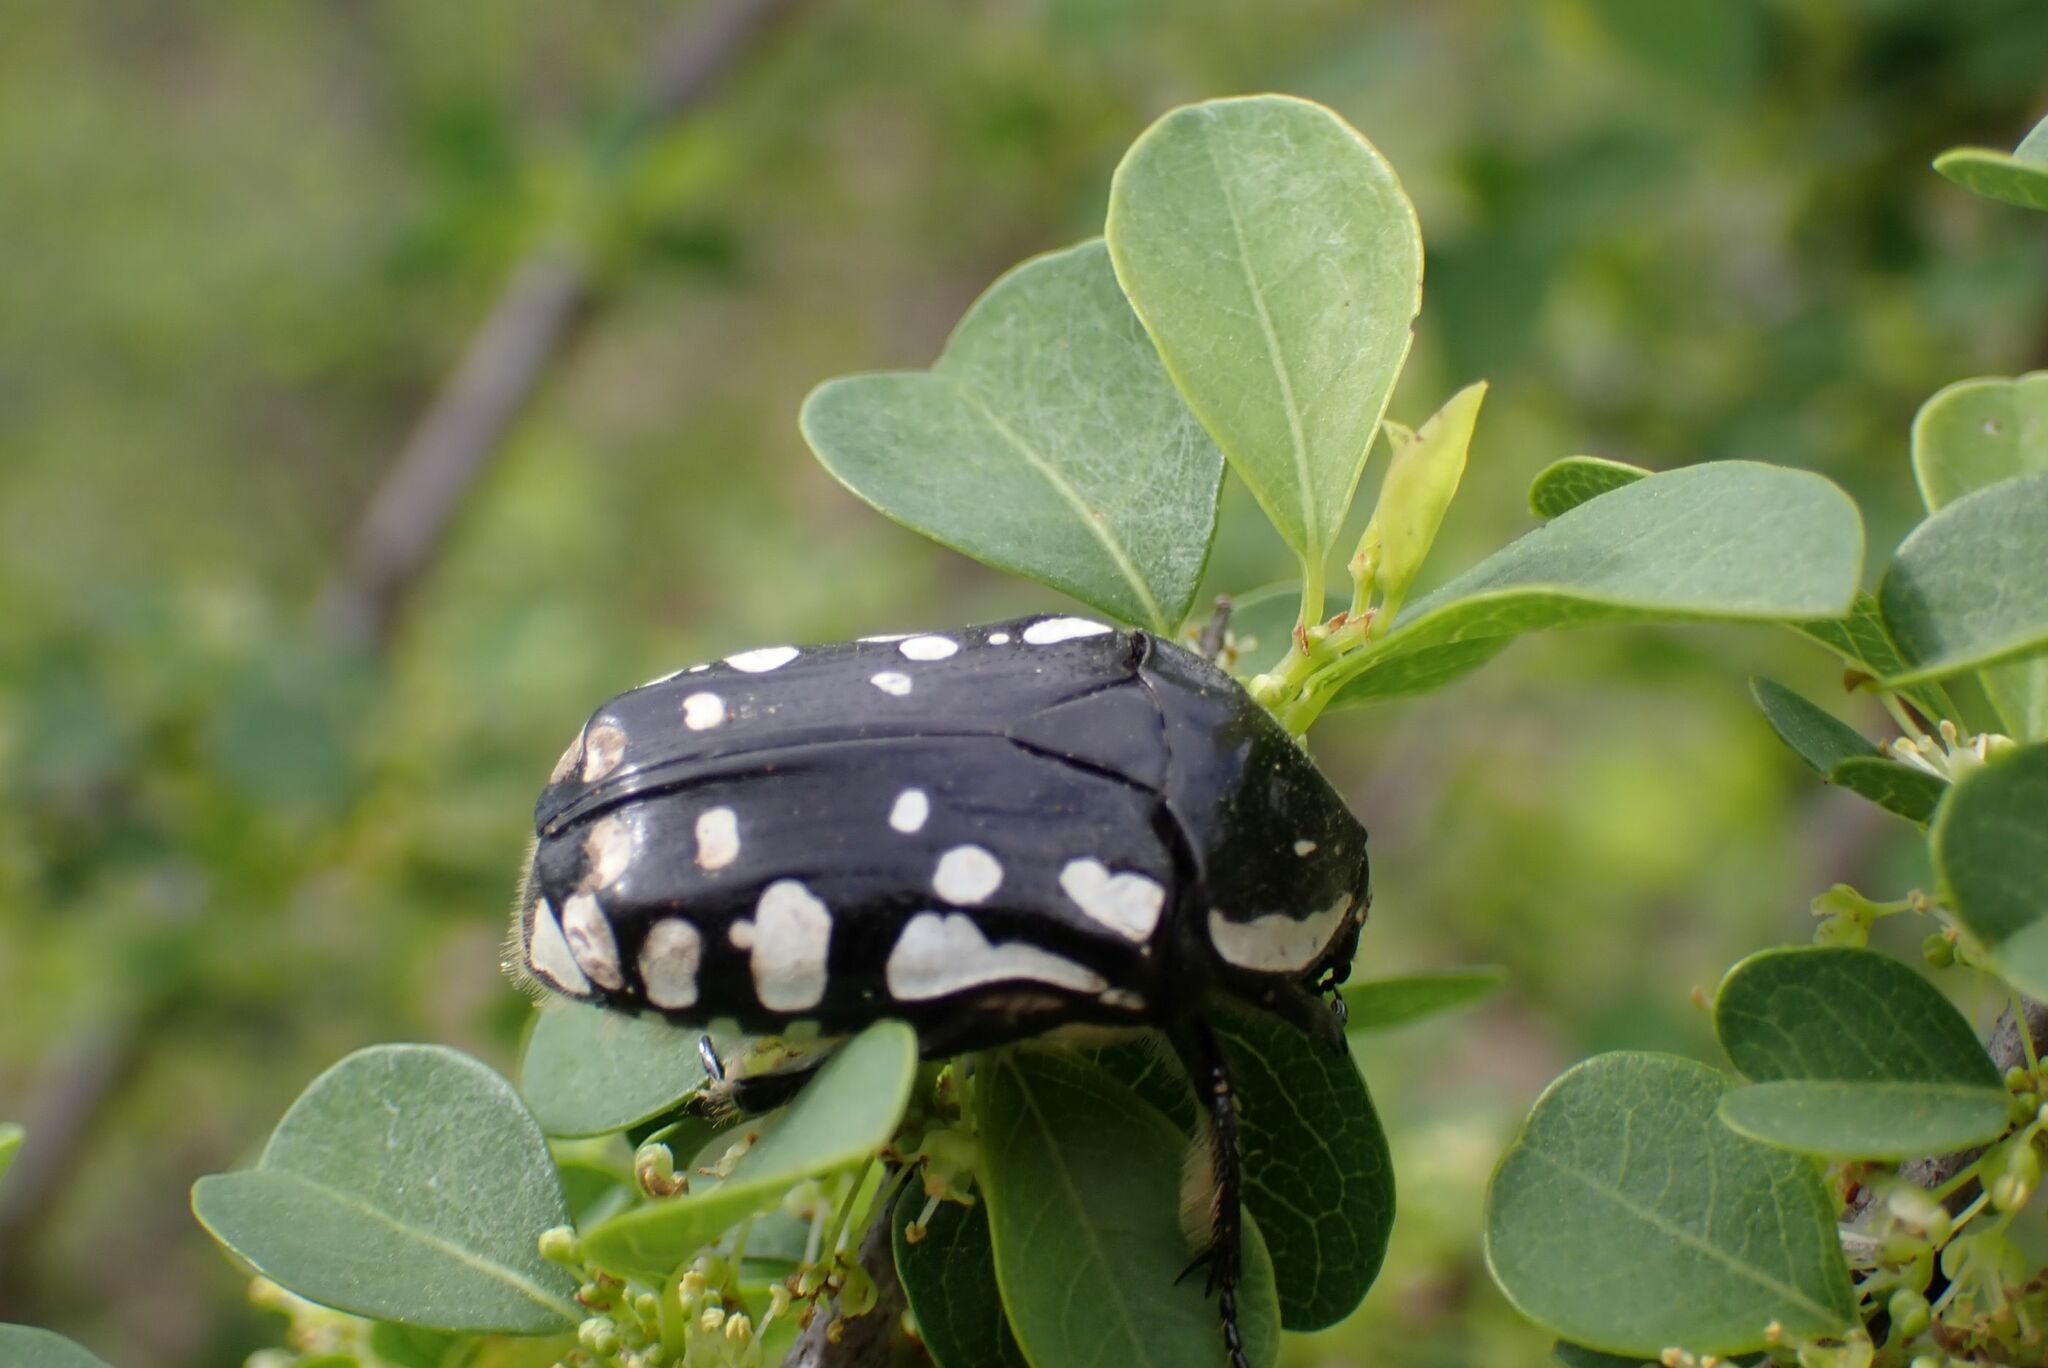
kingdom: Animalia
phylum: Arthropoda
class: Insecta
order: Coleoptera
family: Scarabaeidae
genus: Rhabdotis
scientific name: Rhabdotis albinigra
